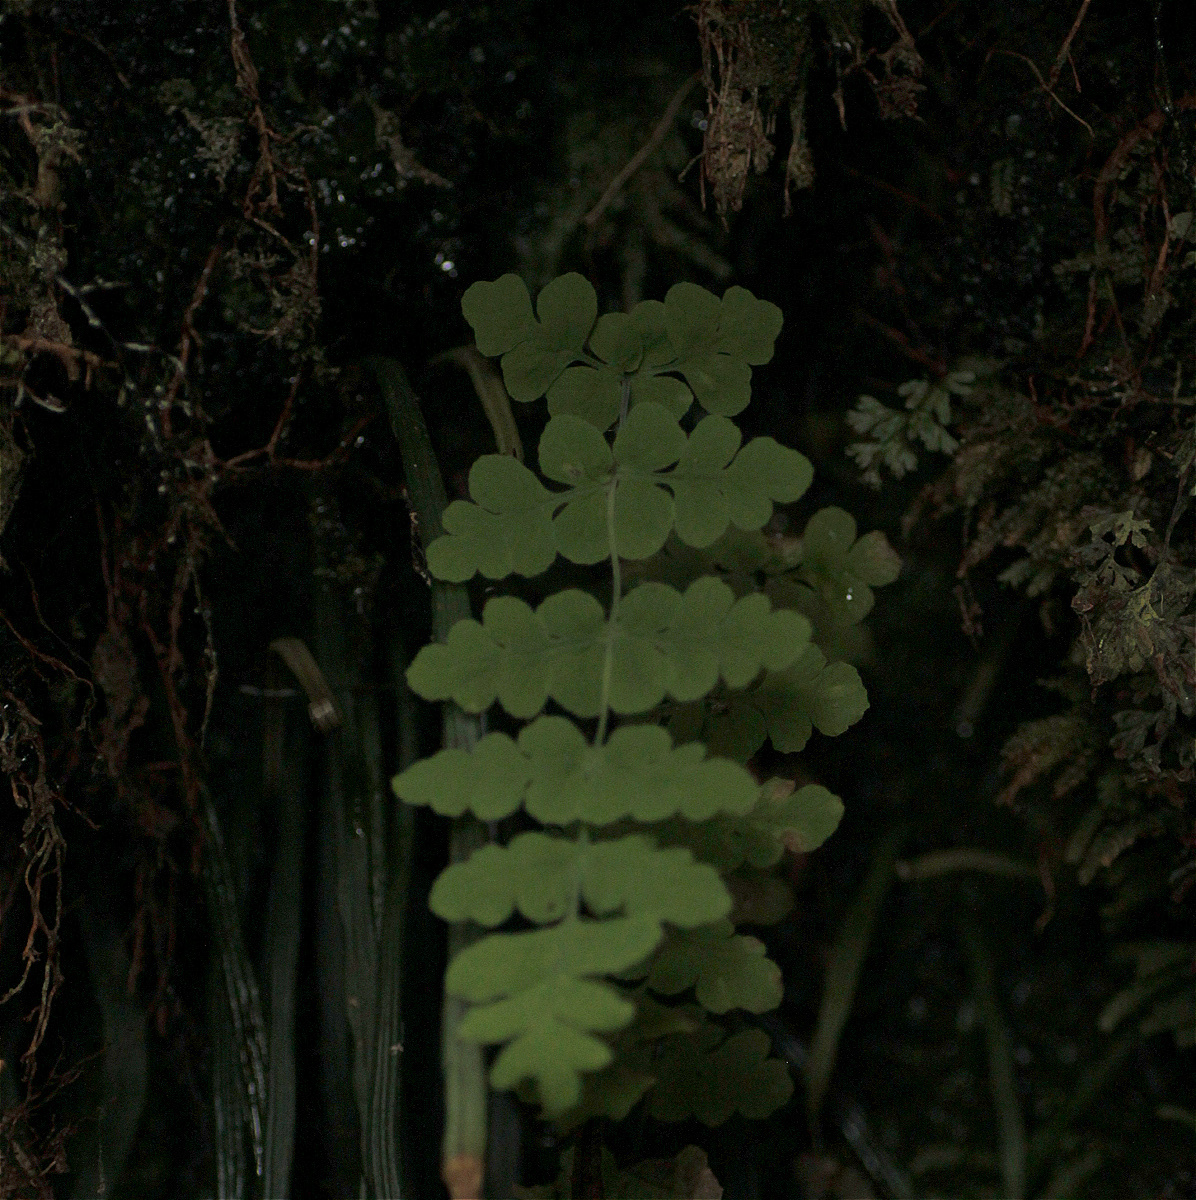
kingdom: Plantae
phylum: Tracheophyta
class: Polypodiopsida
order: Polypodiales
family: Dennstaedtiaceae
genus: Histiopteris
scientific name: Histiopteris incisa
